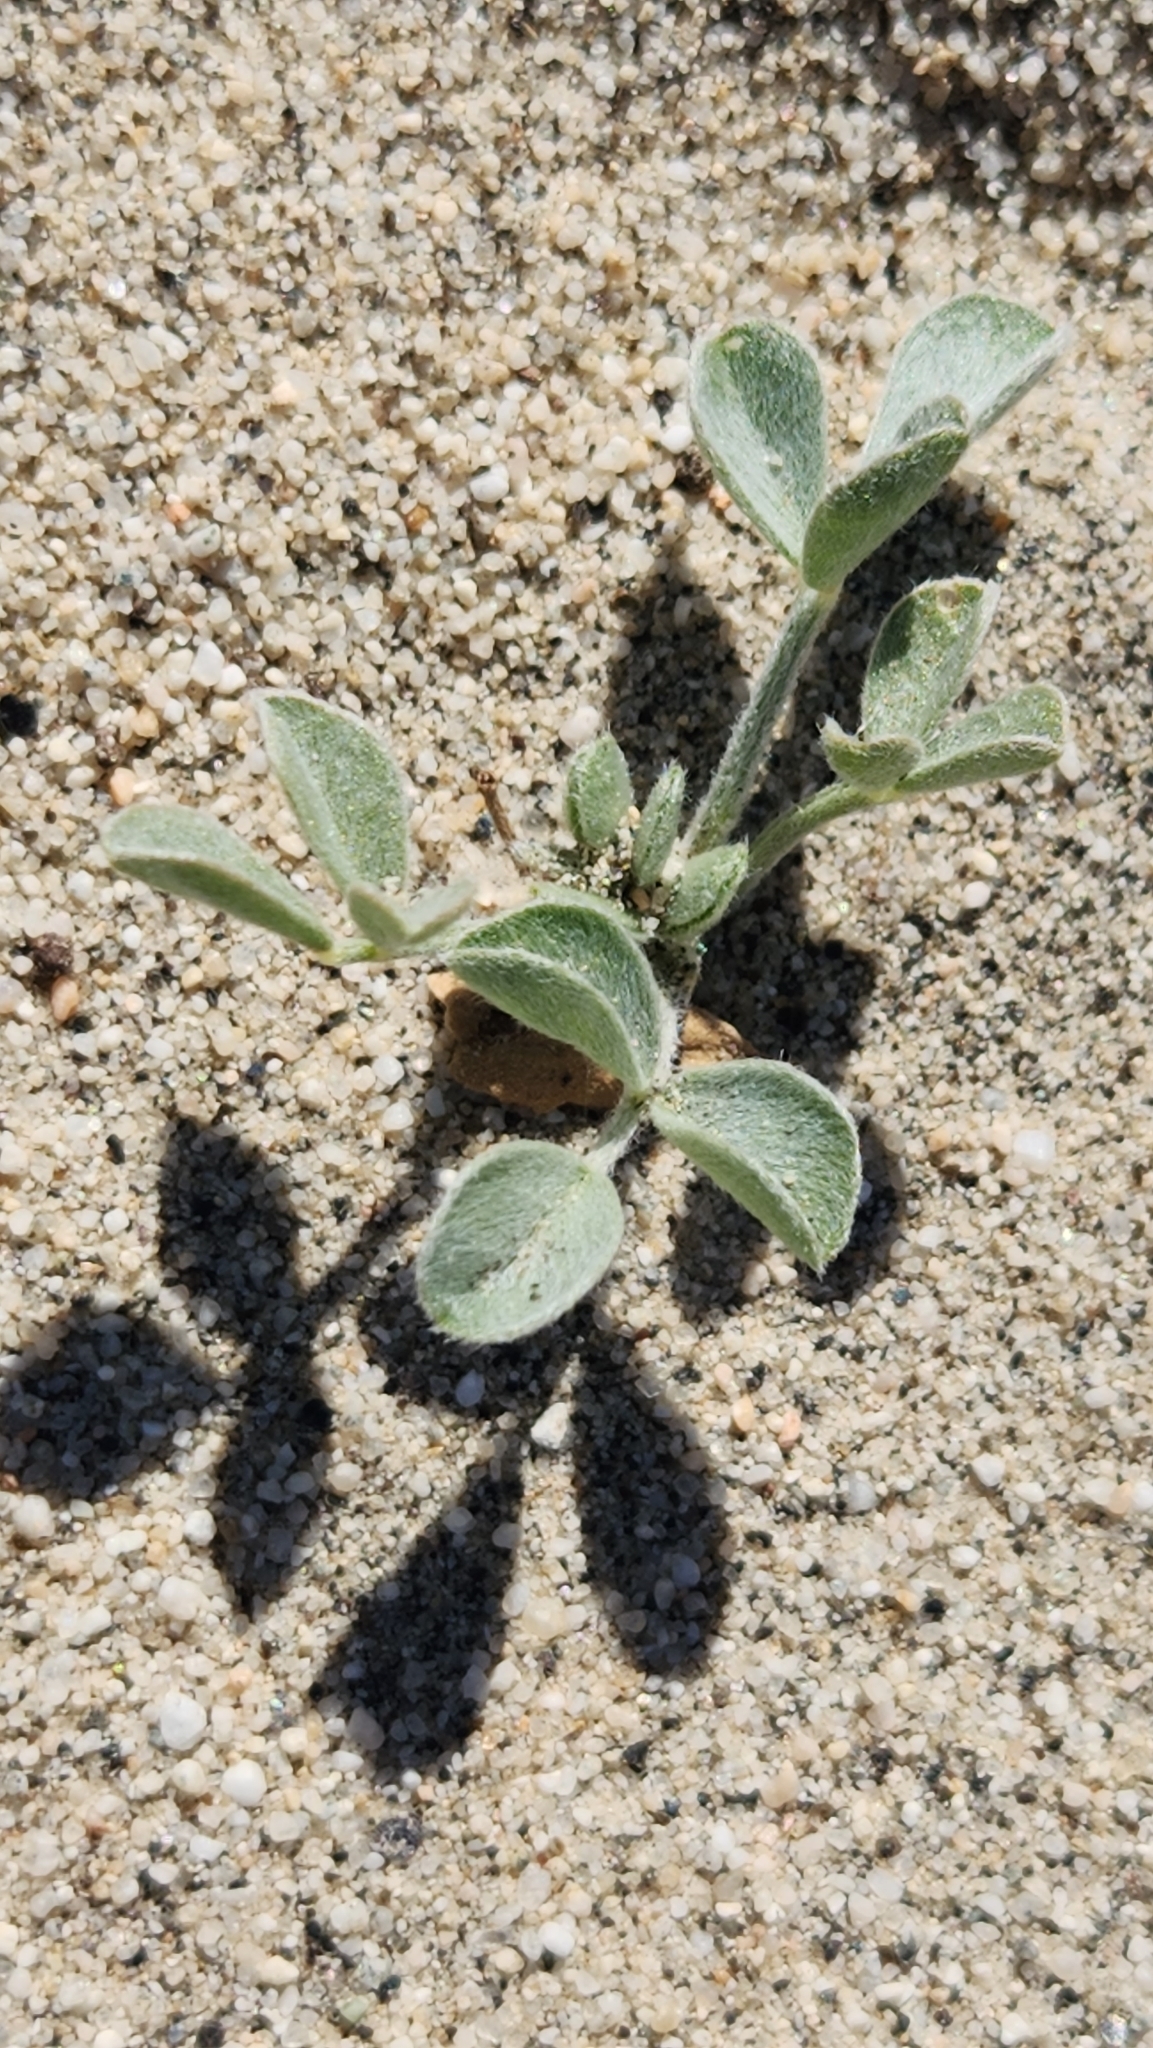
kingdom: Plantae
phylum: Tracheophyta
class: Magnoliopsida
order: Fabales
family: Fabaceae
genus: Astragalus
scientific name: Astragalus lentiginosus
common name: Freckled milkvetch
